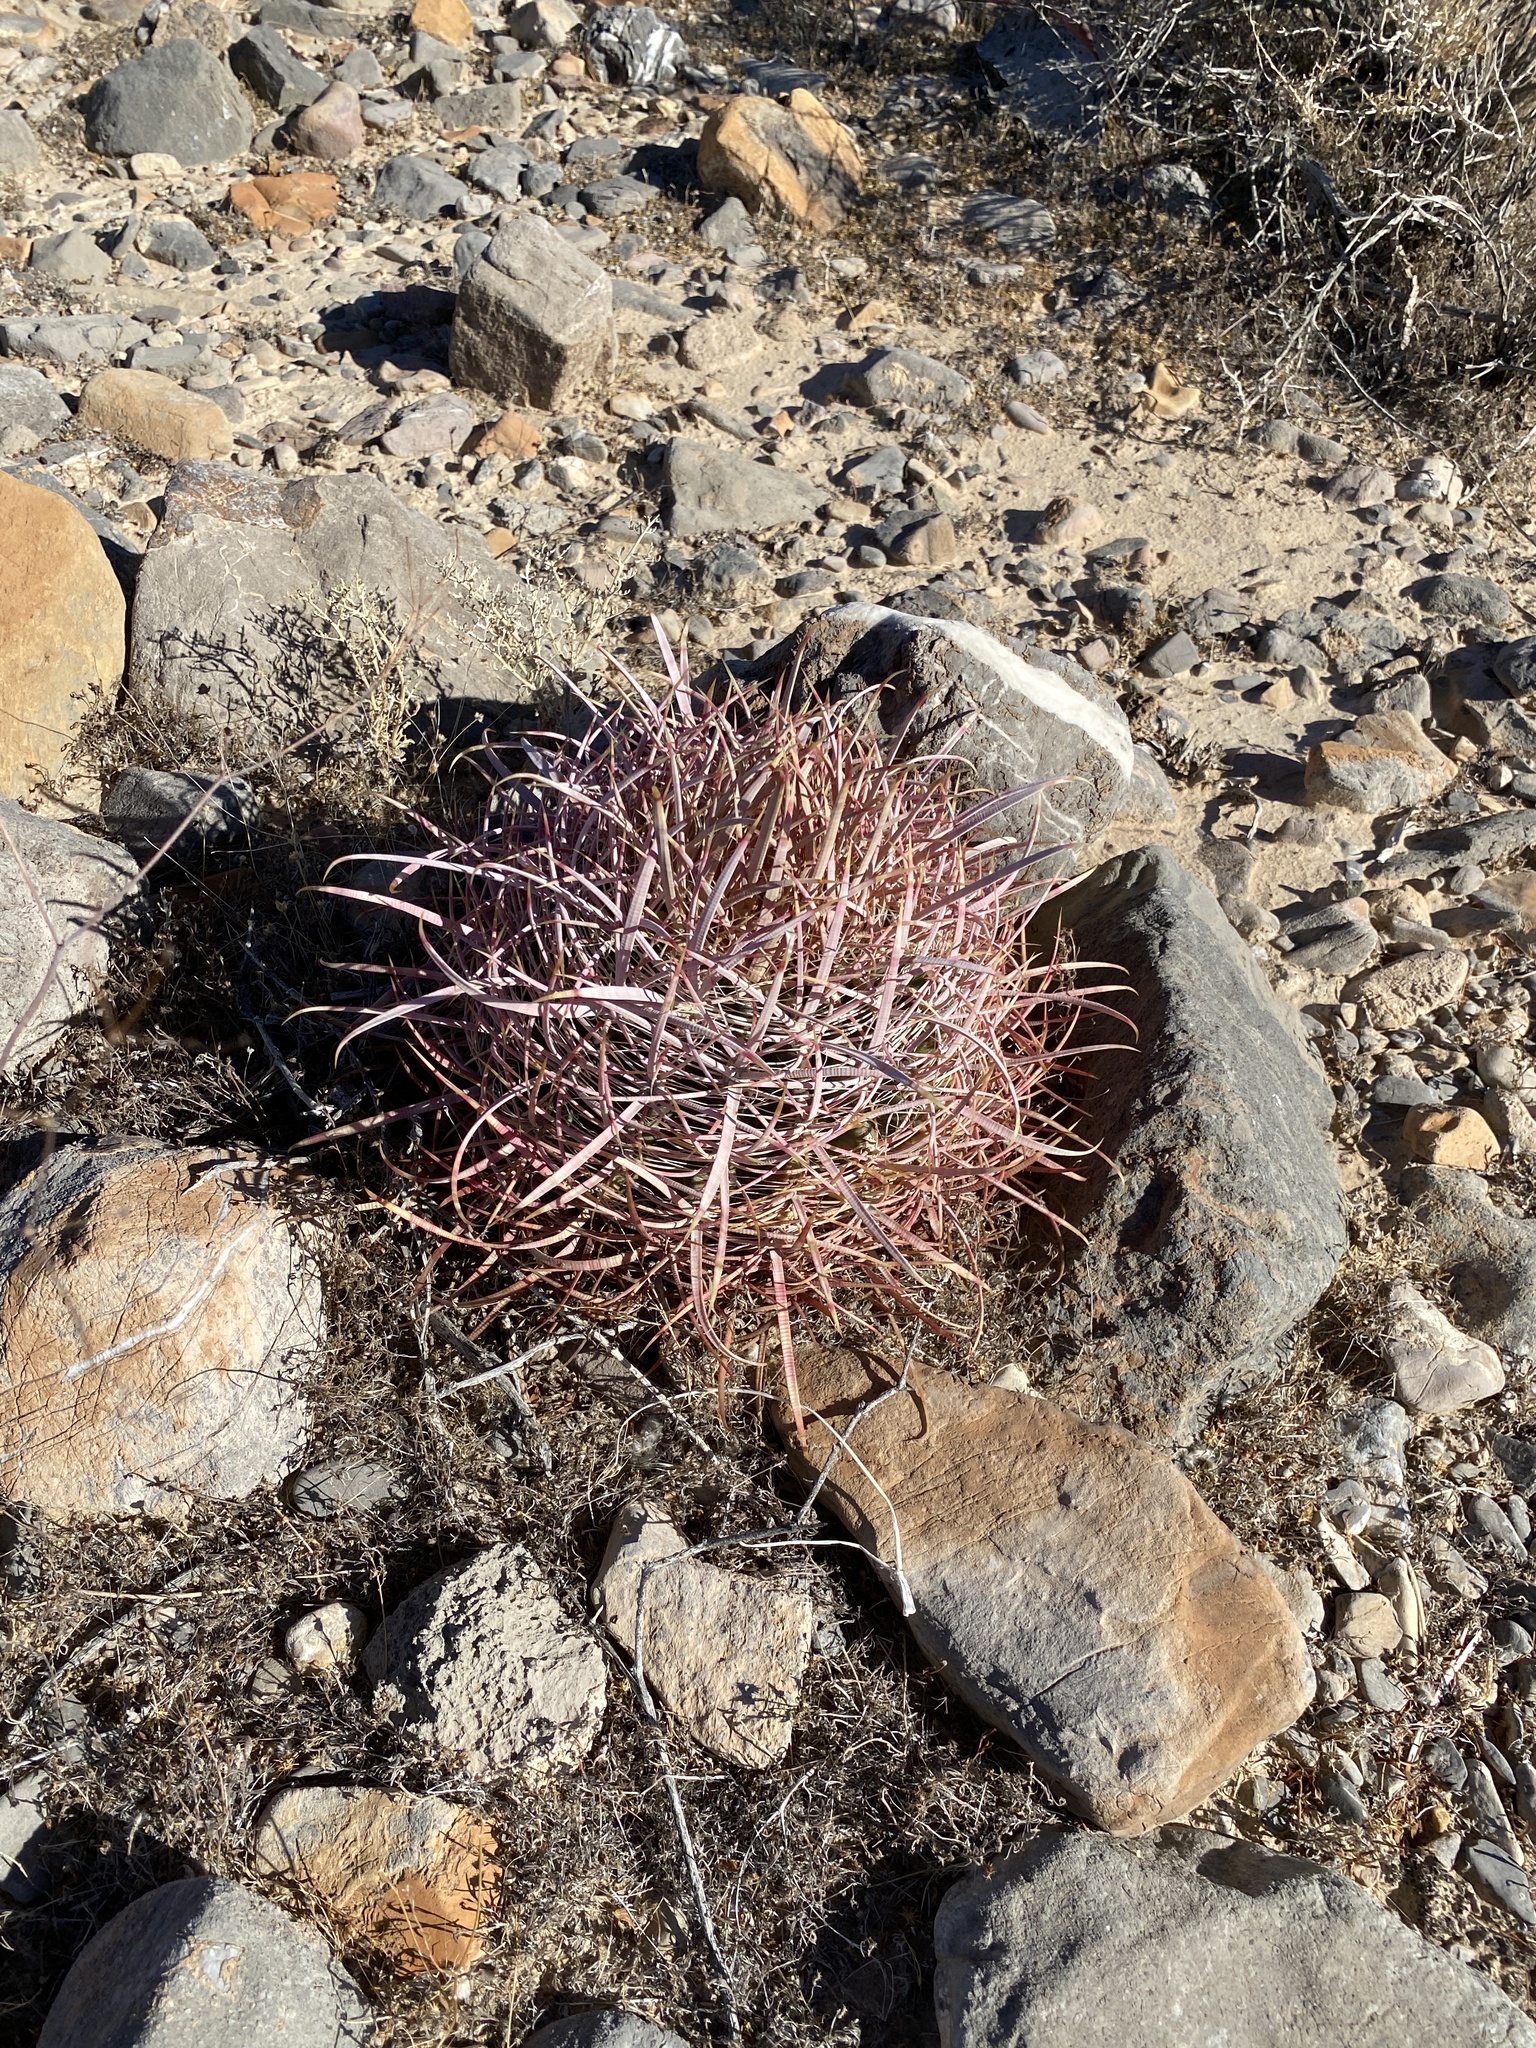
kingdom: Plantae
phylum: Tracheophyta
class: Magnoliopsida
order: Caryophyllales
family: Cactaceae
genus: Ferocactus
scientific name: Ferocactus cylindraceus
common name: California barrel cactus
